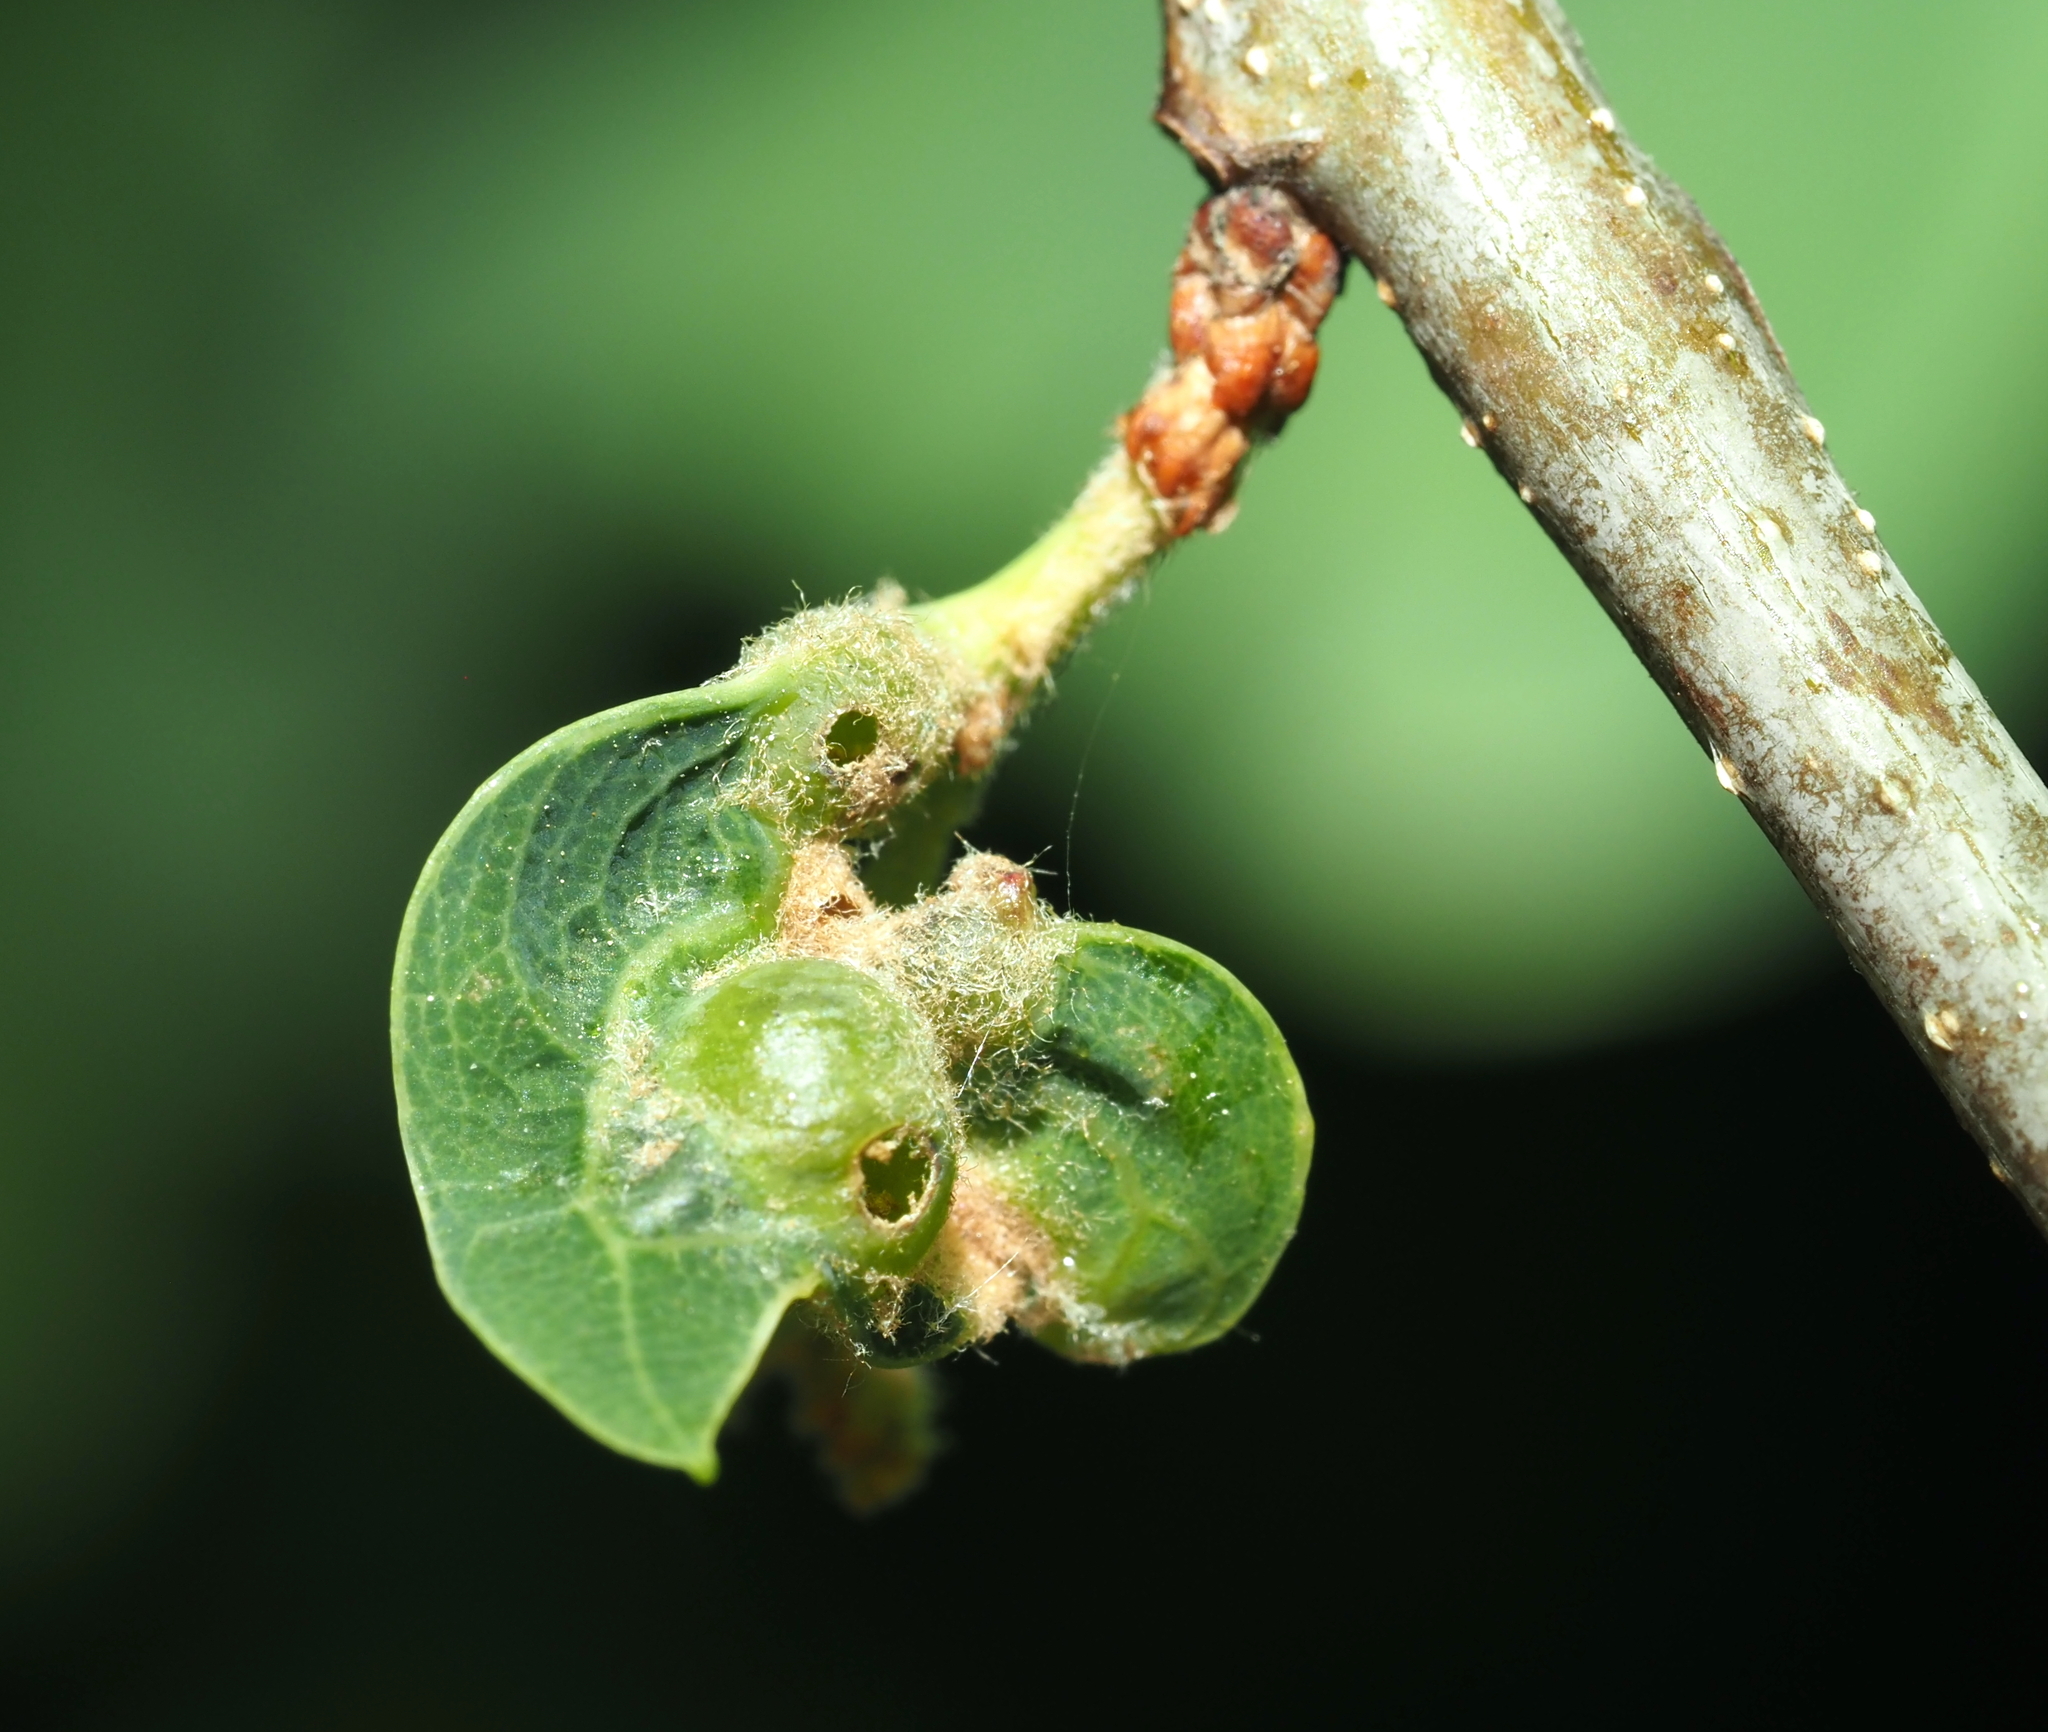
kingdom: Animalia
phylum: Arthropoda
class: Insecta
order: Hymenoptera
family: Cynipidae
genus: Andricus
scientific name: Andricus
